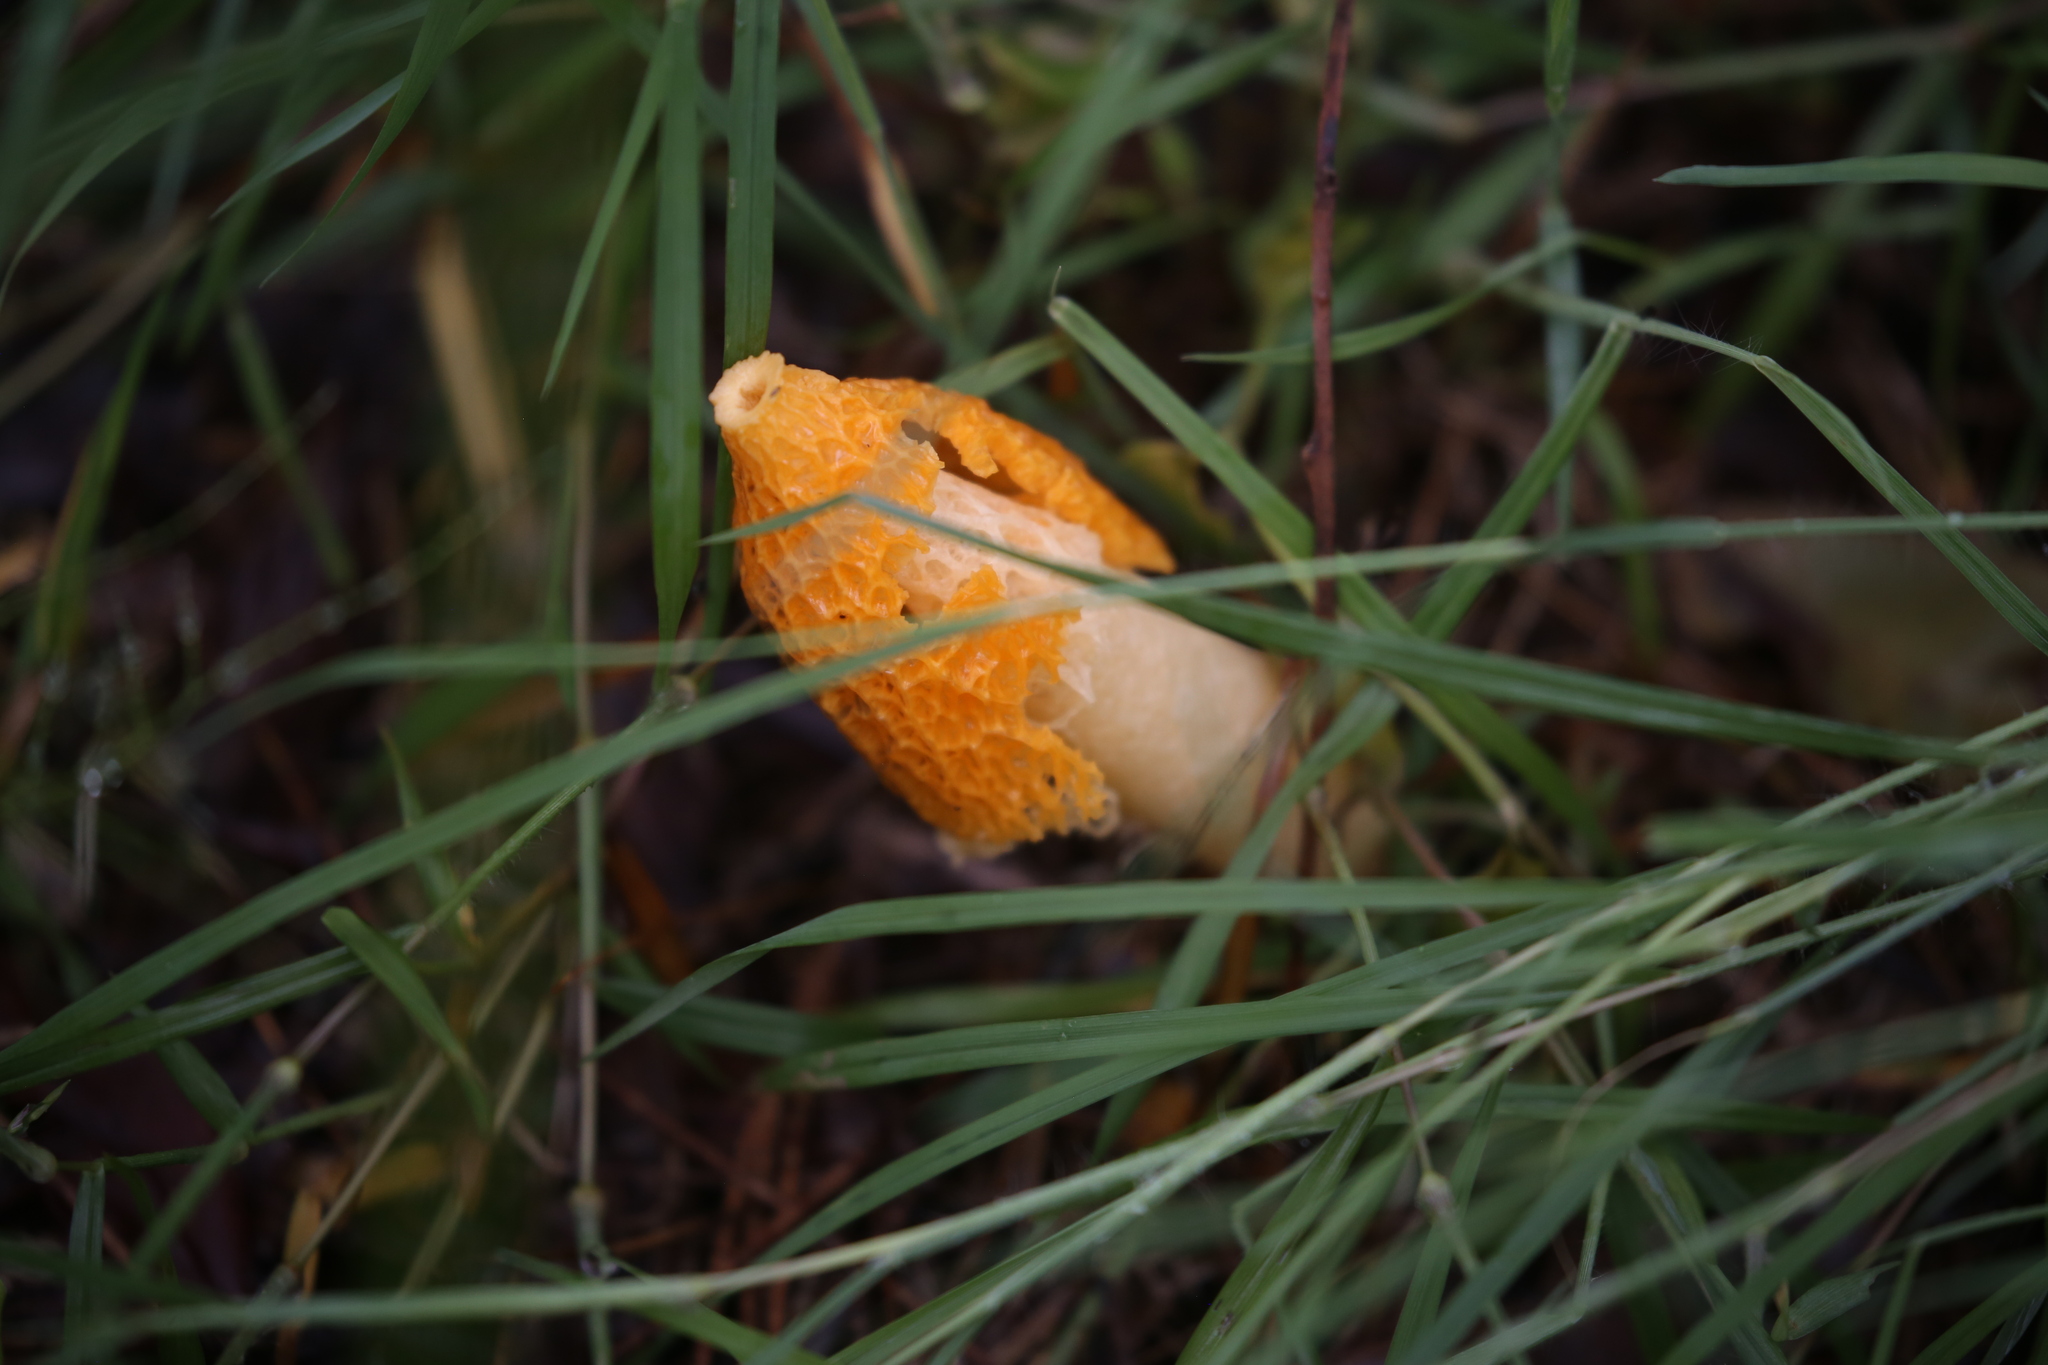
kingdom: Fungi
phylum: Basidiomycota
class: Agaricomycetes
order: Phallales
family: Phallaceae
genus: Phallus
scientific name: Phallus multicolor
